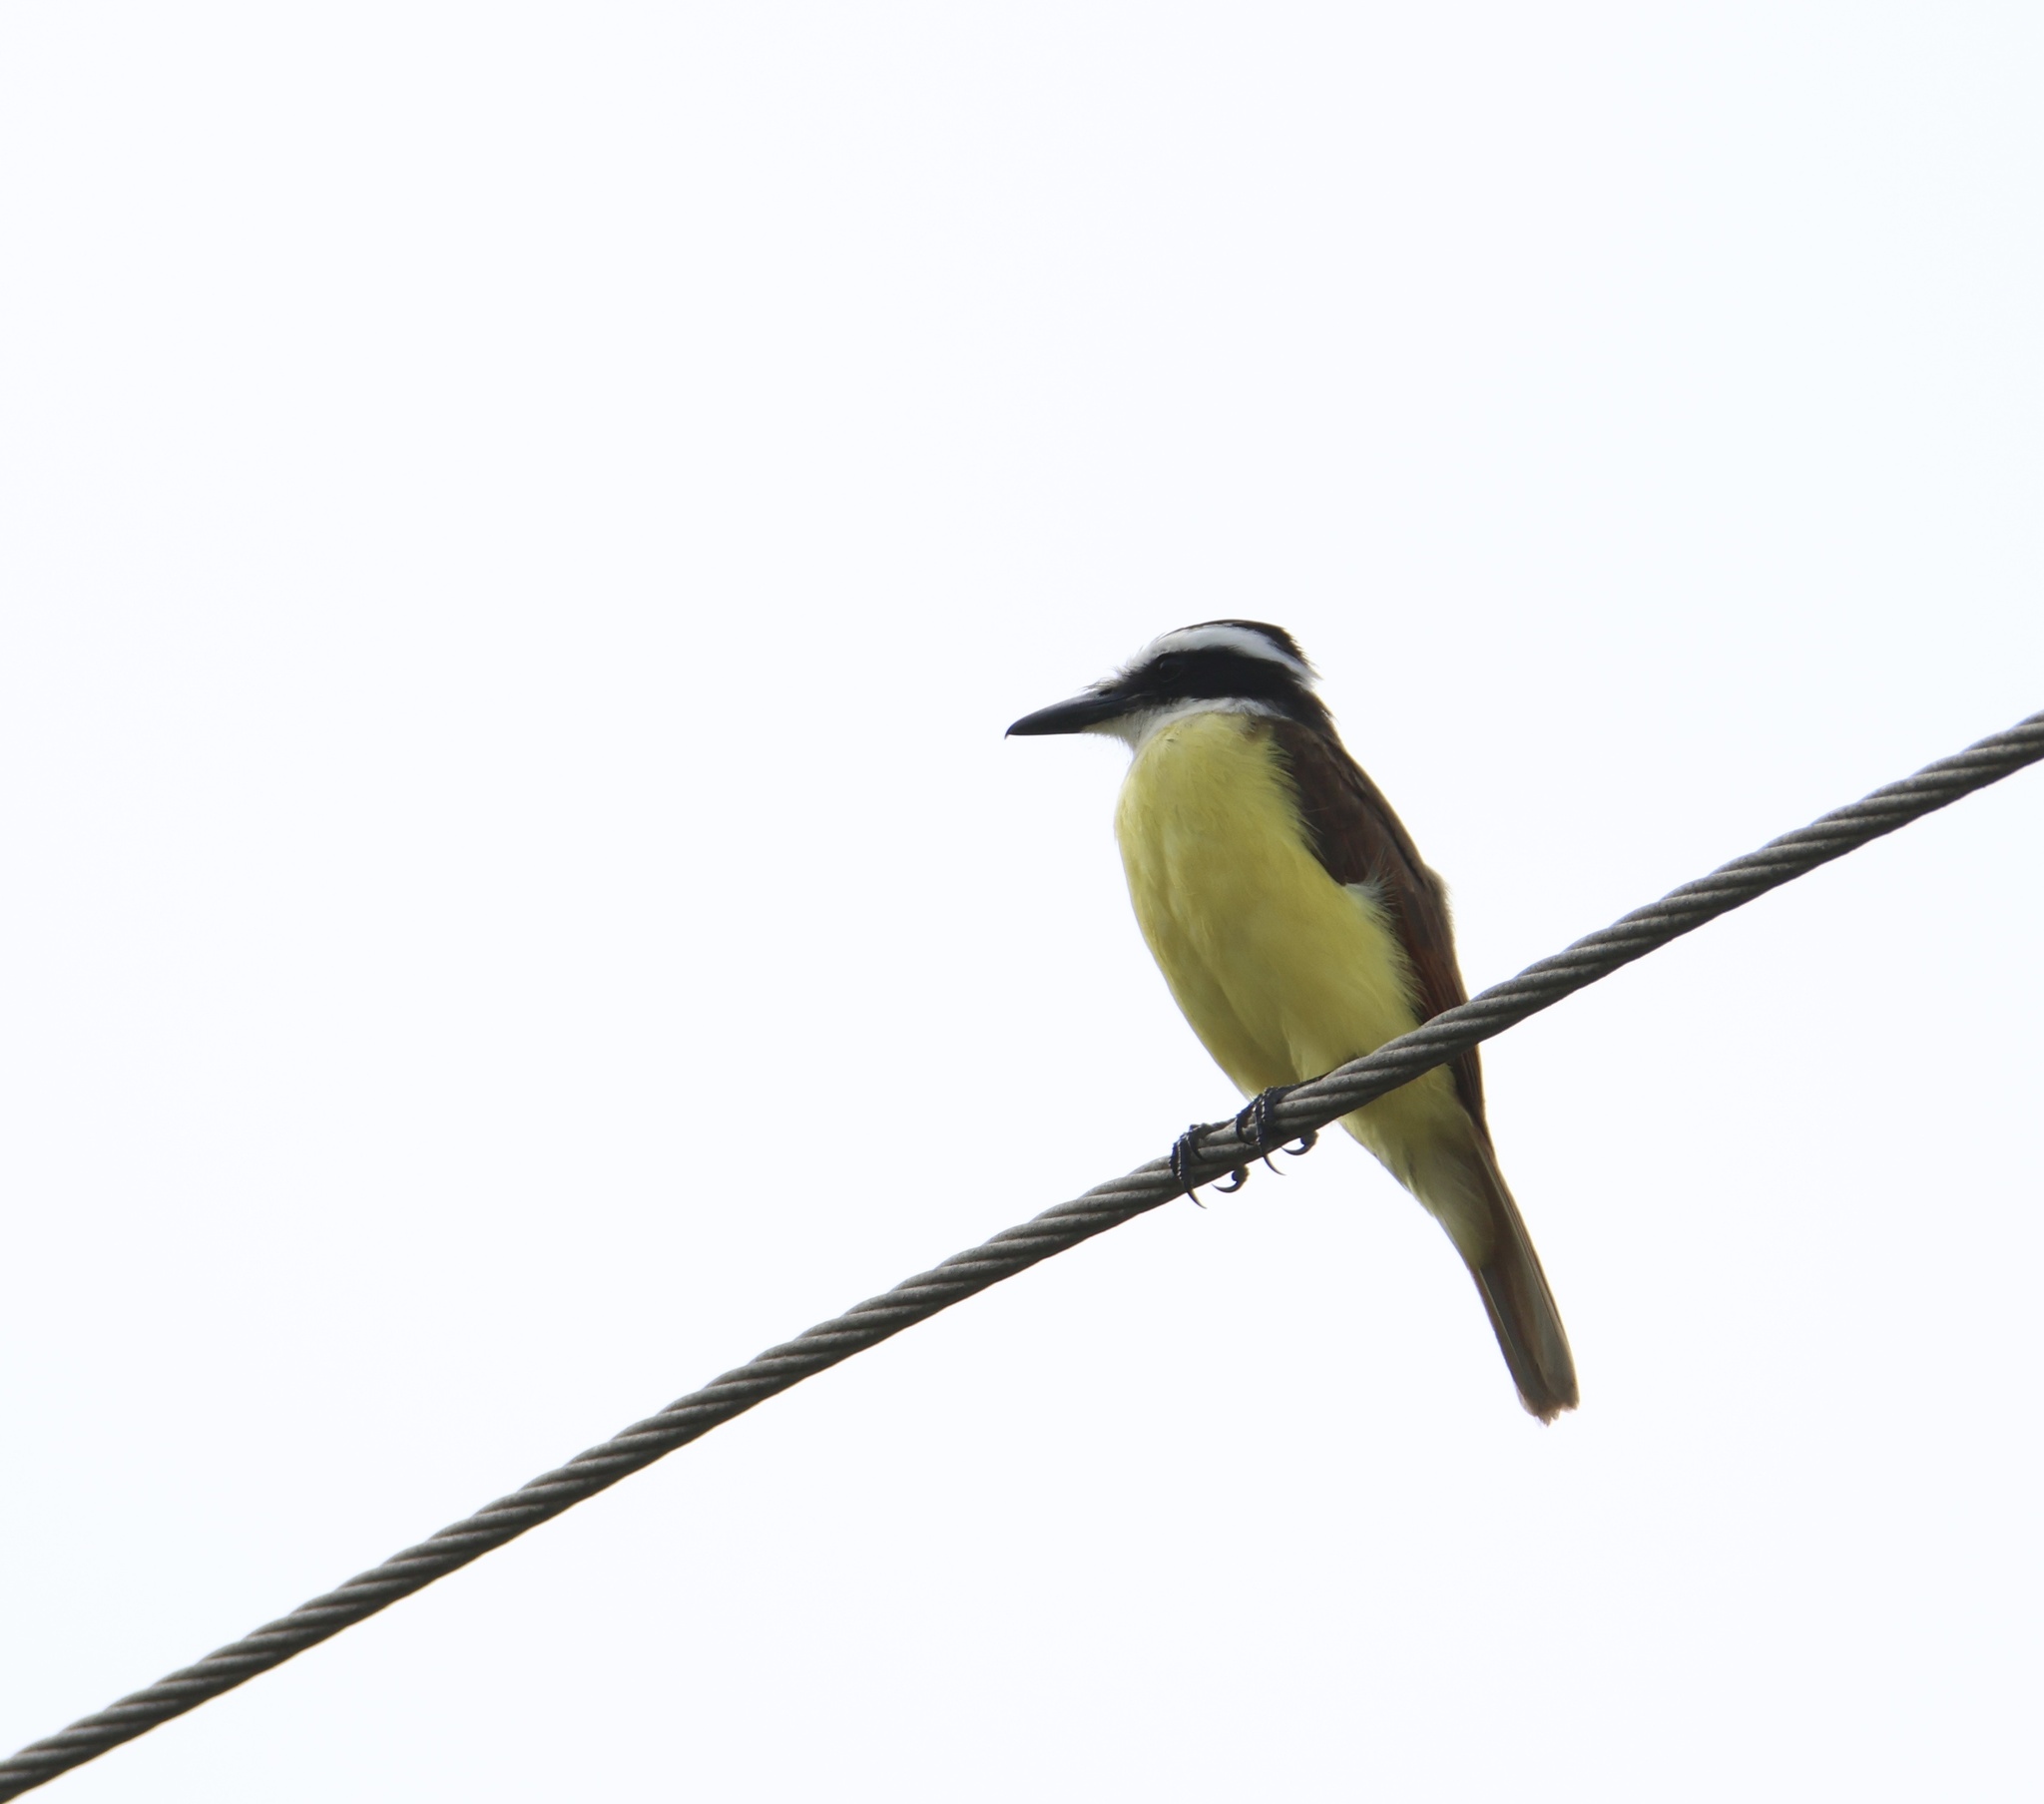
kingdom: Animalia
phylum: Chordata
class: Aves
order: Passeriformes
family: Tyrannidae
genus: Pitangus
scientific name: Pitangus sulphuratus
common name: Great kiskadee
